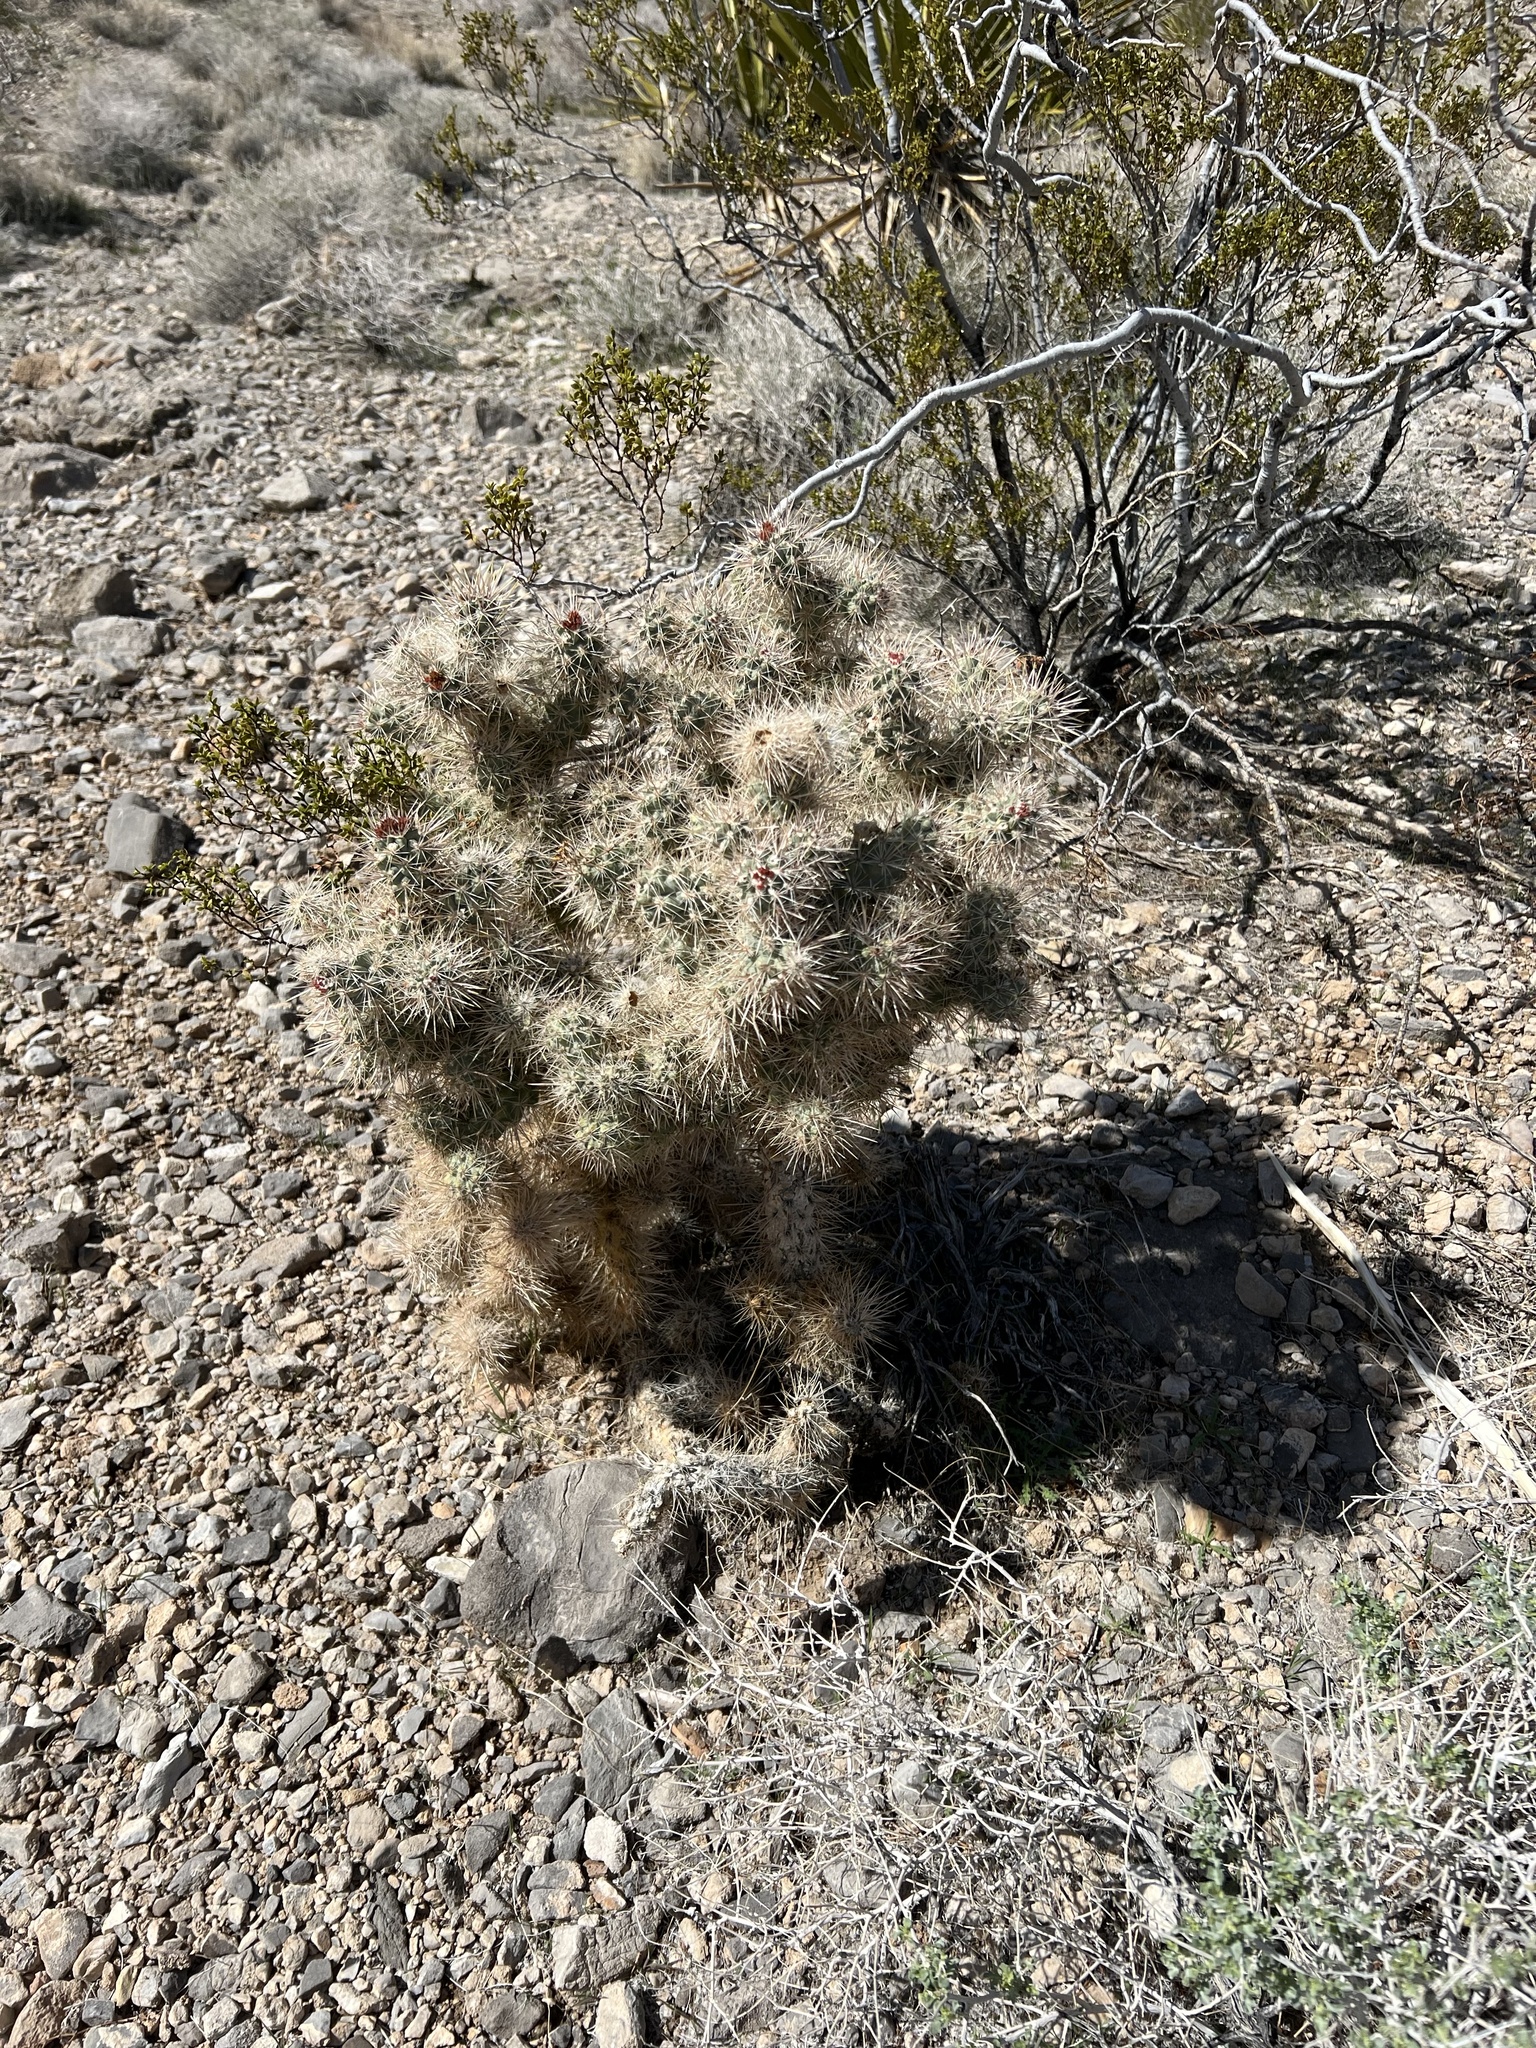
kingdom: Plantae
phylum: Tracheophyta
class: Magnoliopsida
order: Caryophyllales
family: Cactaceae
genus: Cylindropuntia
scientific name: Cylindropuntia echinocarpa
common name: Ground cholla
